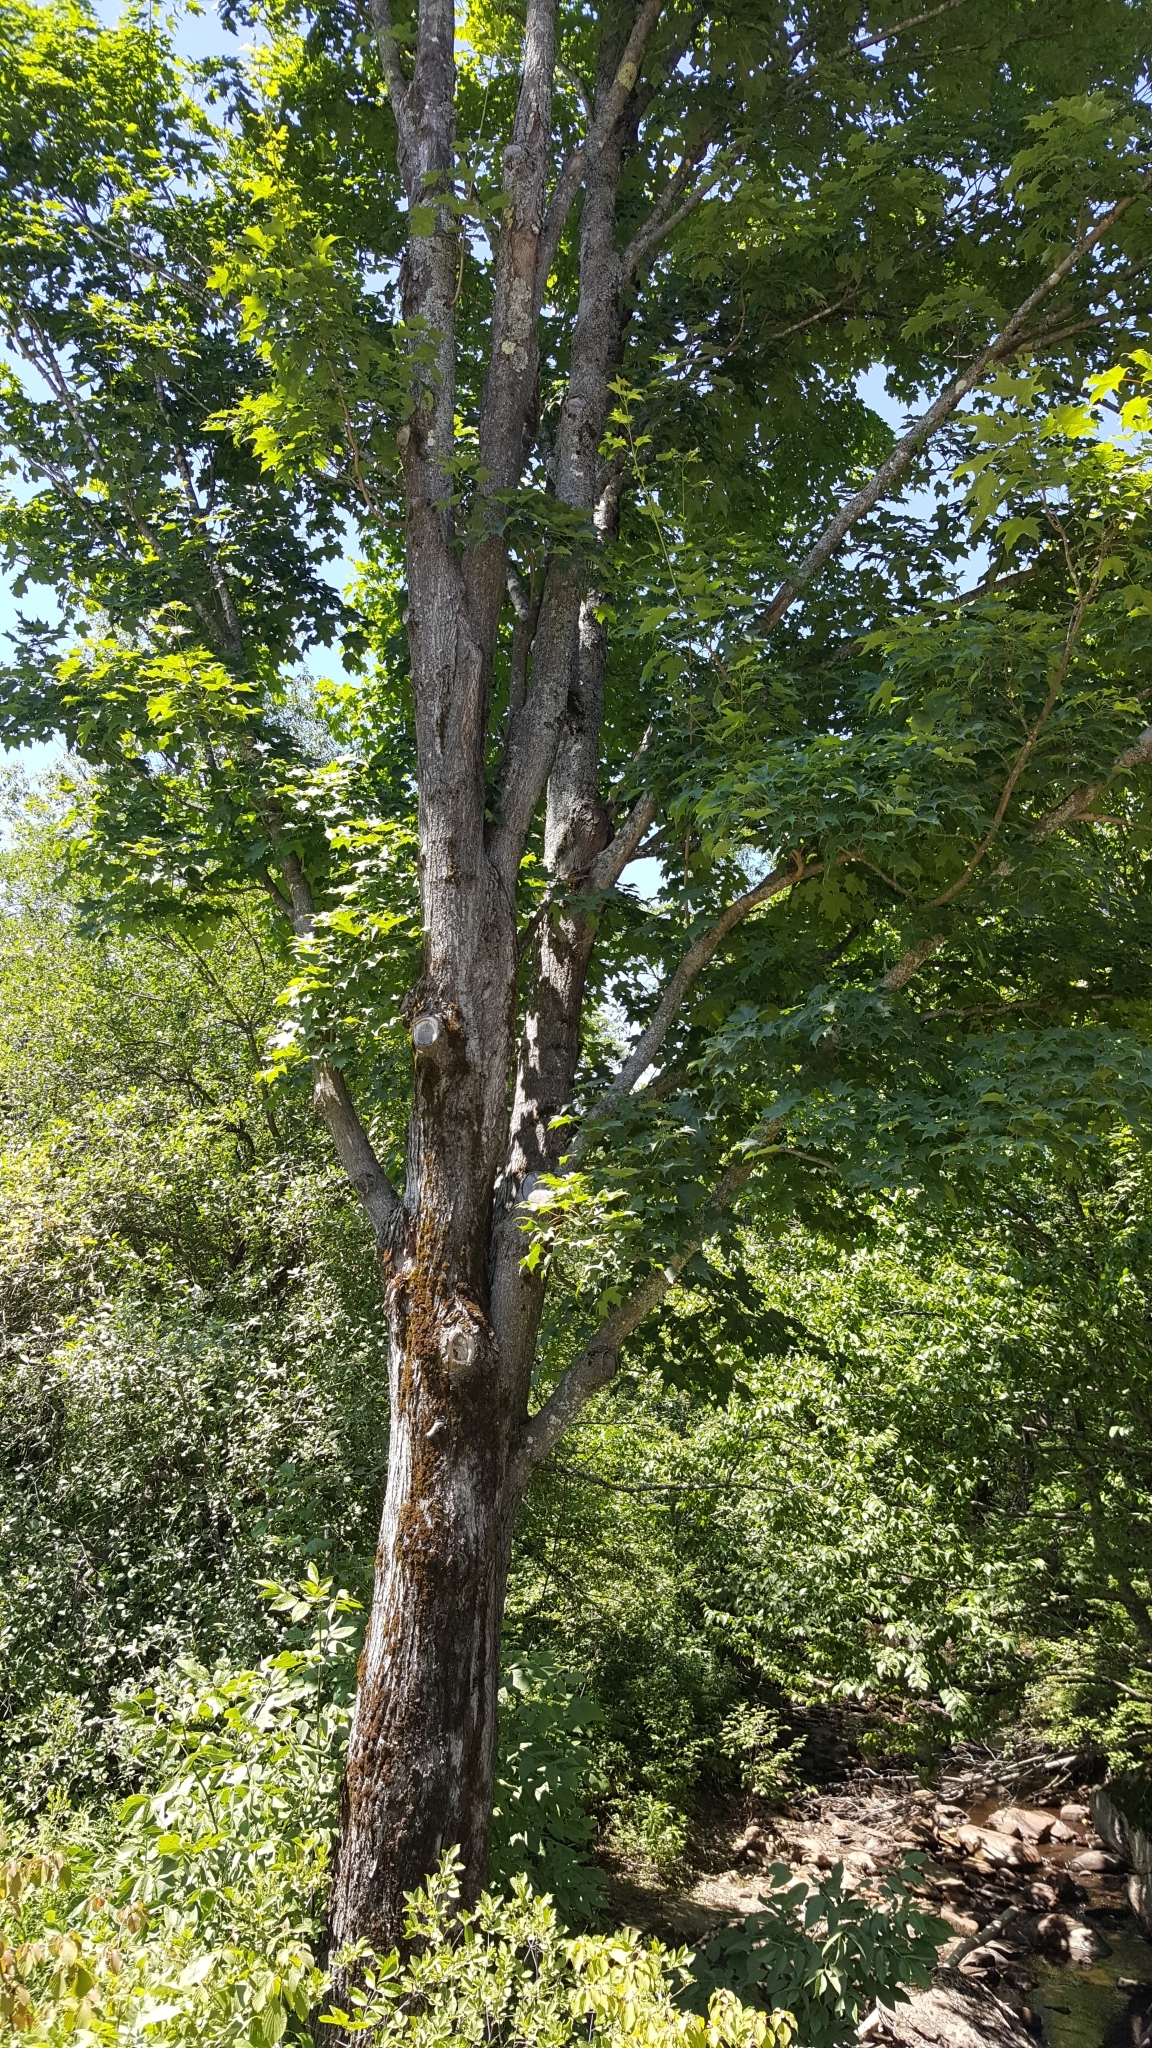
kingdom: Plantae
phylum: Tracheophyta
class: Magnoliopsida
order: Sapindales
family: Sapindaceae
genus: Acer
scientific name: Acer saccharum
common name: Sugar maple
